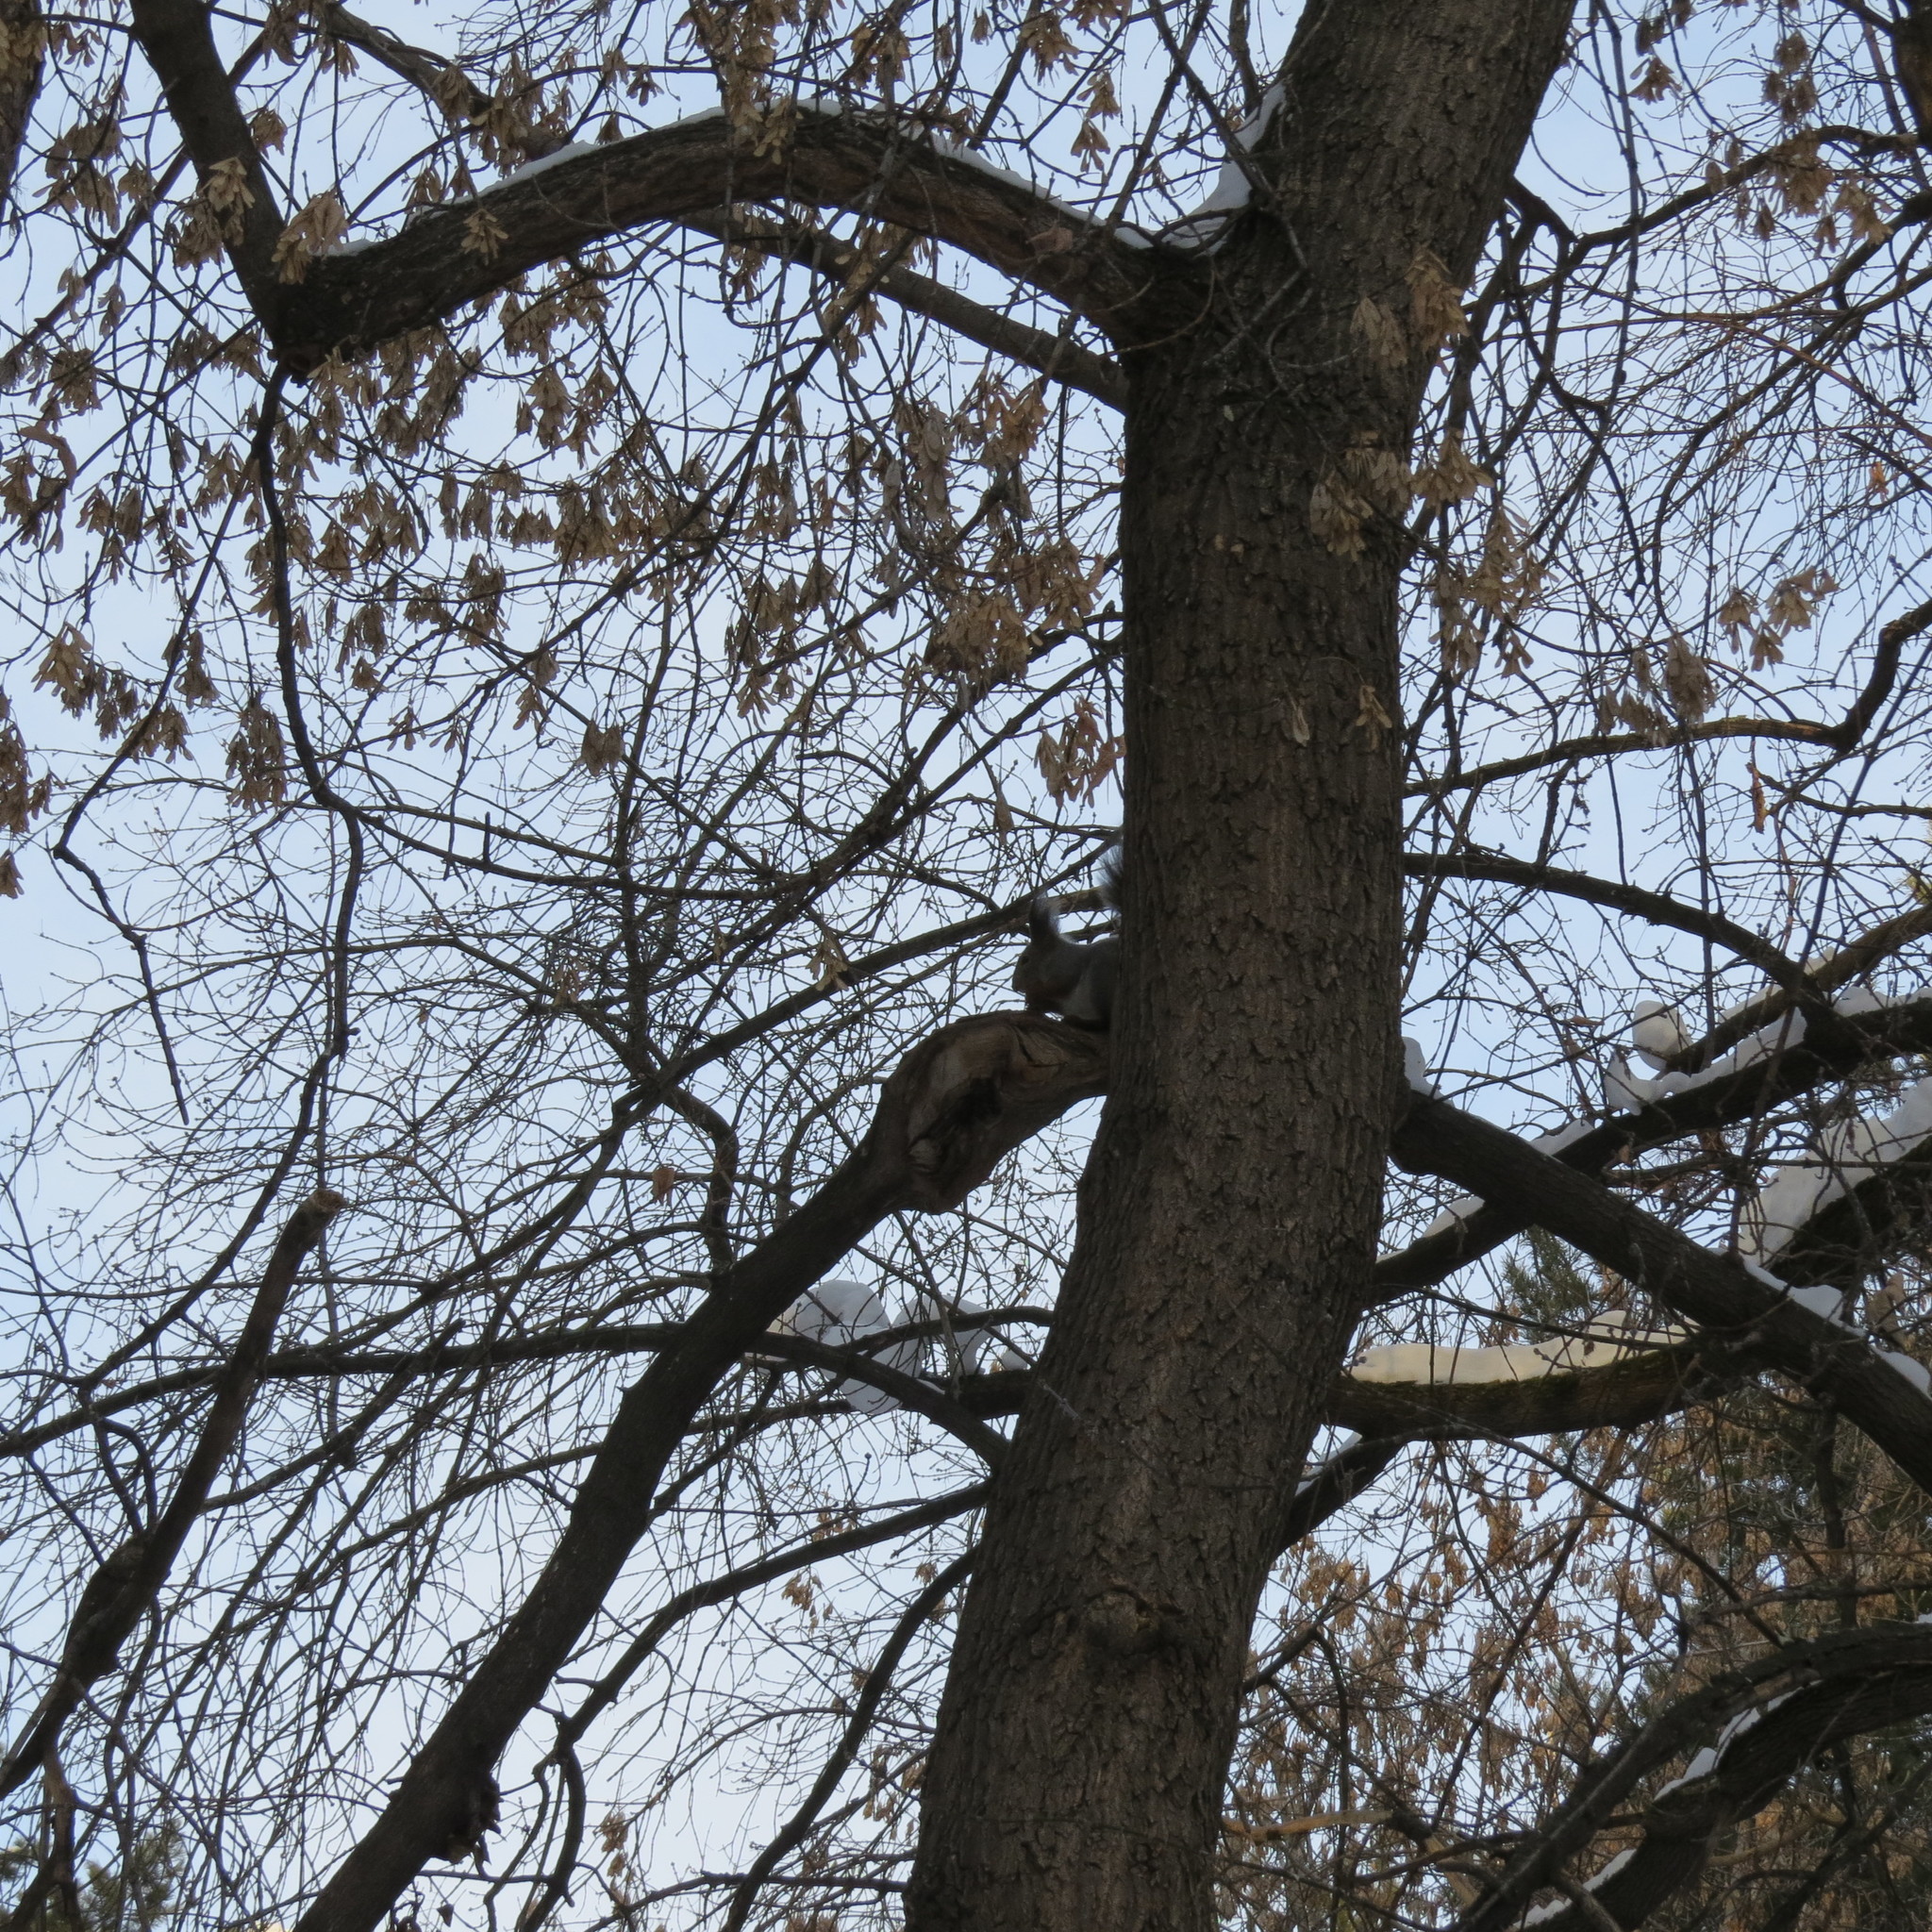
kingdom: Animalia
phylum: Chordata
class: Mammalia
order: Rodentia
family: Sciuridae
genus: Sciurus
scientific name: Sciurus vulgaris
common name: Eurasian red squirrel
